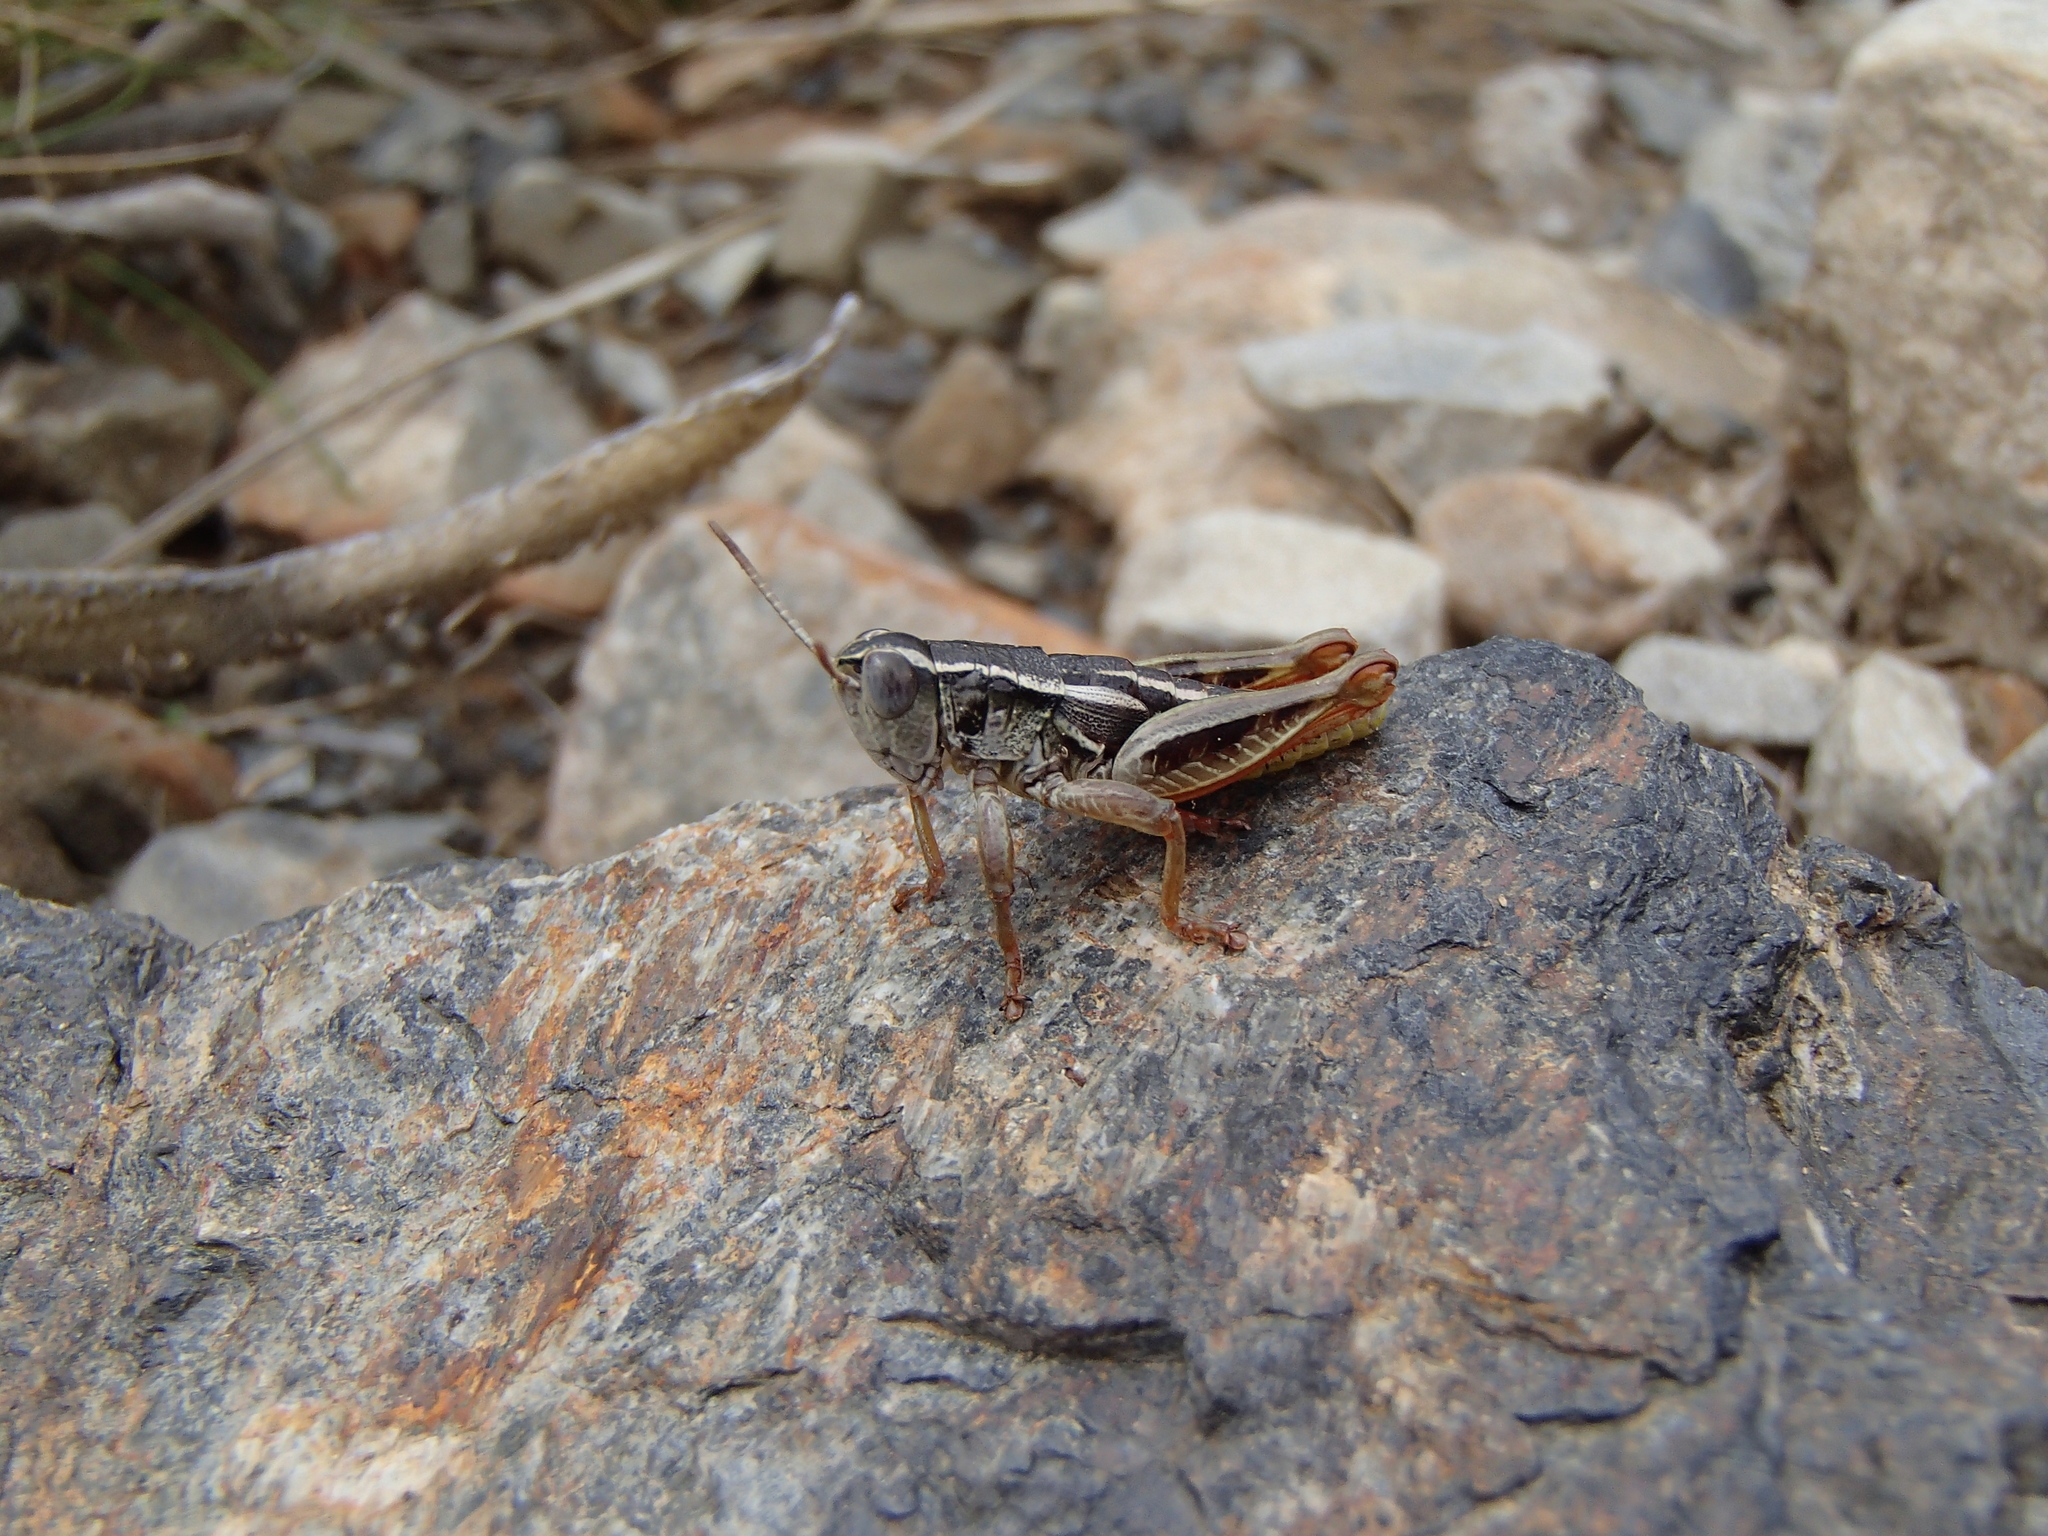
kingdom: Animalia
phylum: Arthropoda
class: Insecta
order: Orthoptera
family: Acrididae
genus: Sigaus
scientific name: Sigaus
